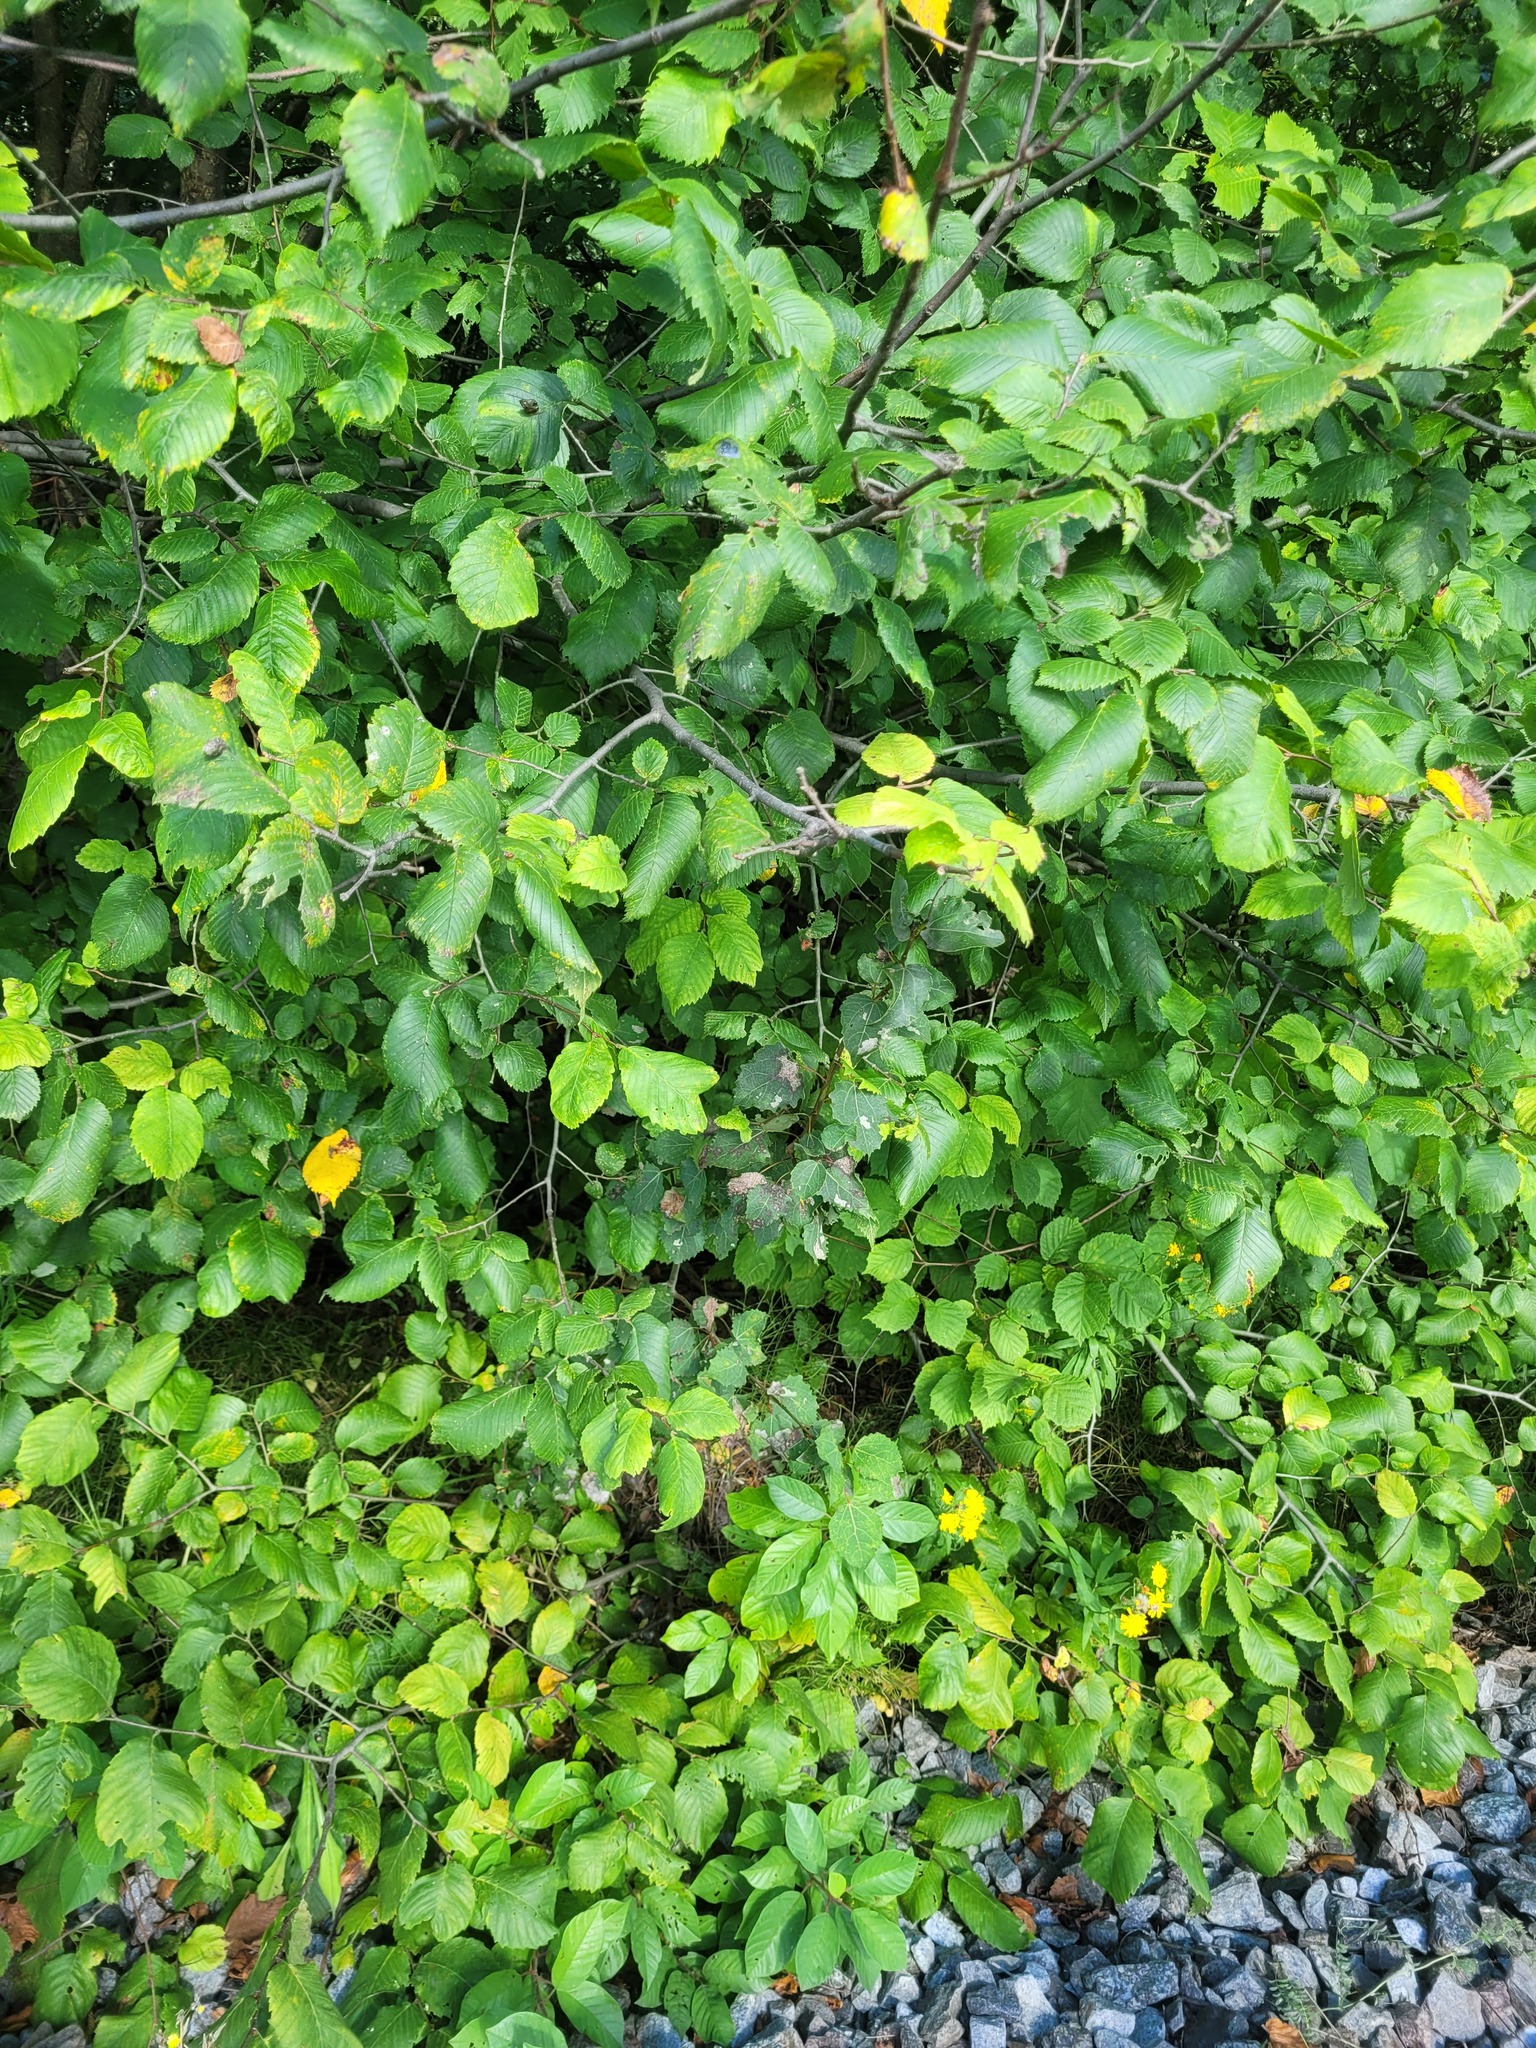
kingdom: Plantae
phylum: Tracheophyta
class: Magnoliopsida
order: Malpighiales
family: Salicaceae
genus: Populus
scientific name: Populus tremula
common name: European aspen
